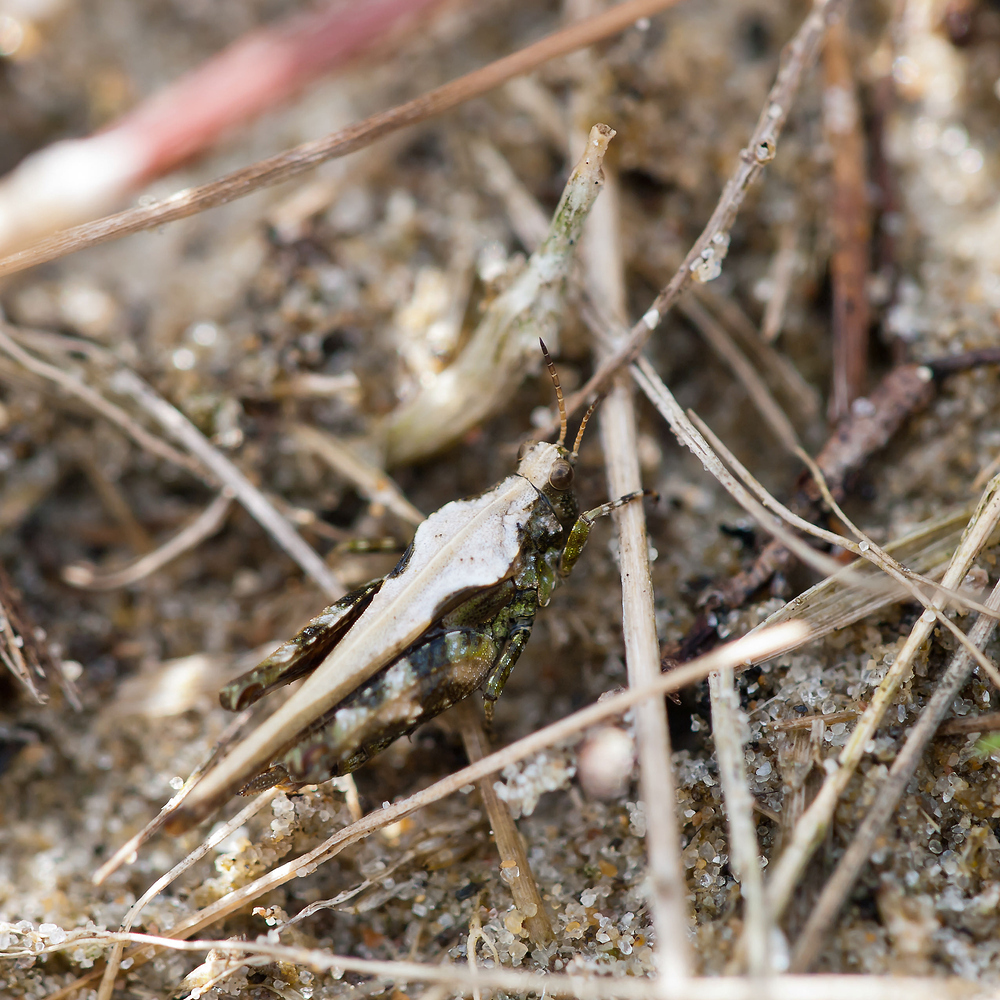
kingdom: Animalia
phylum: Arthropoda
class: Insecta
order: Orthoptera
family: Tetrigidae
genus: Tetrix
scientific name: Tetrix ceperoi
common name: Cepero's ground-hopper
